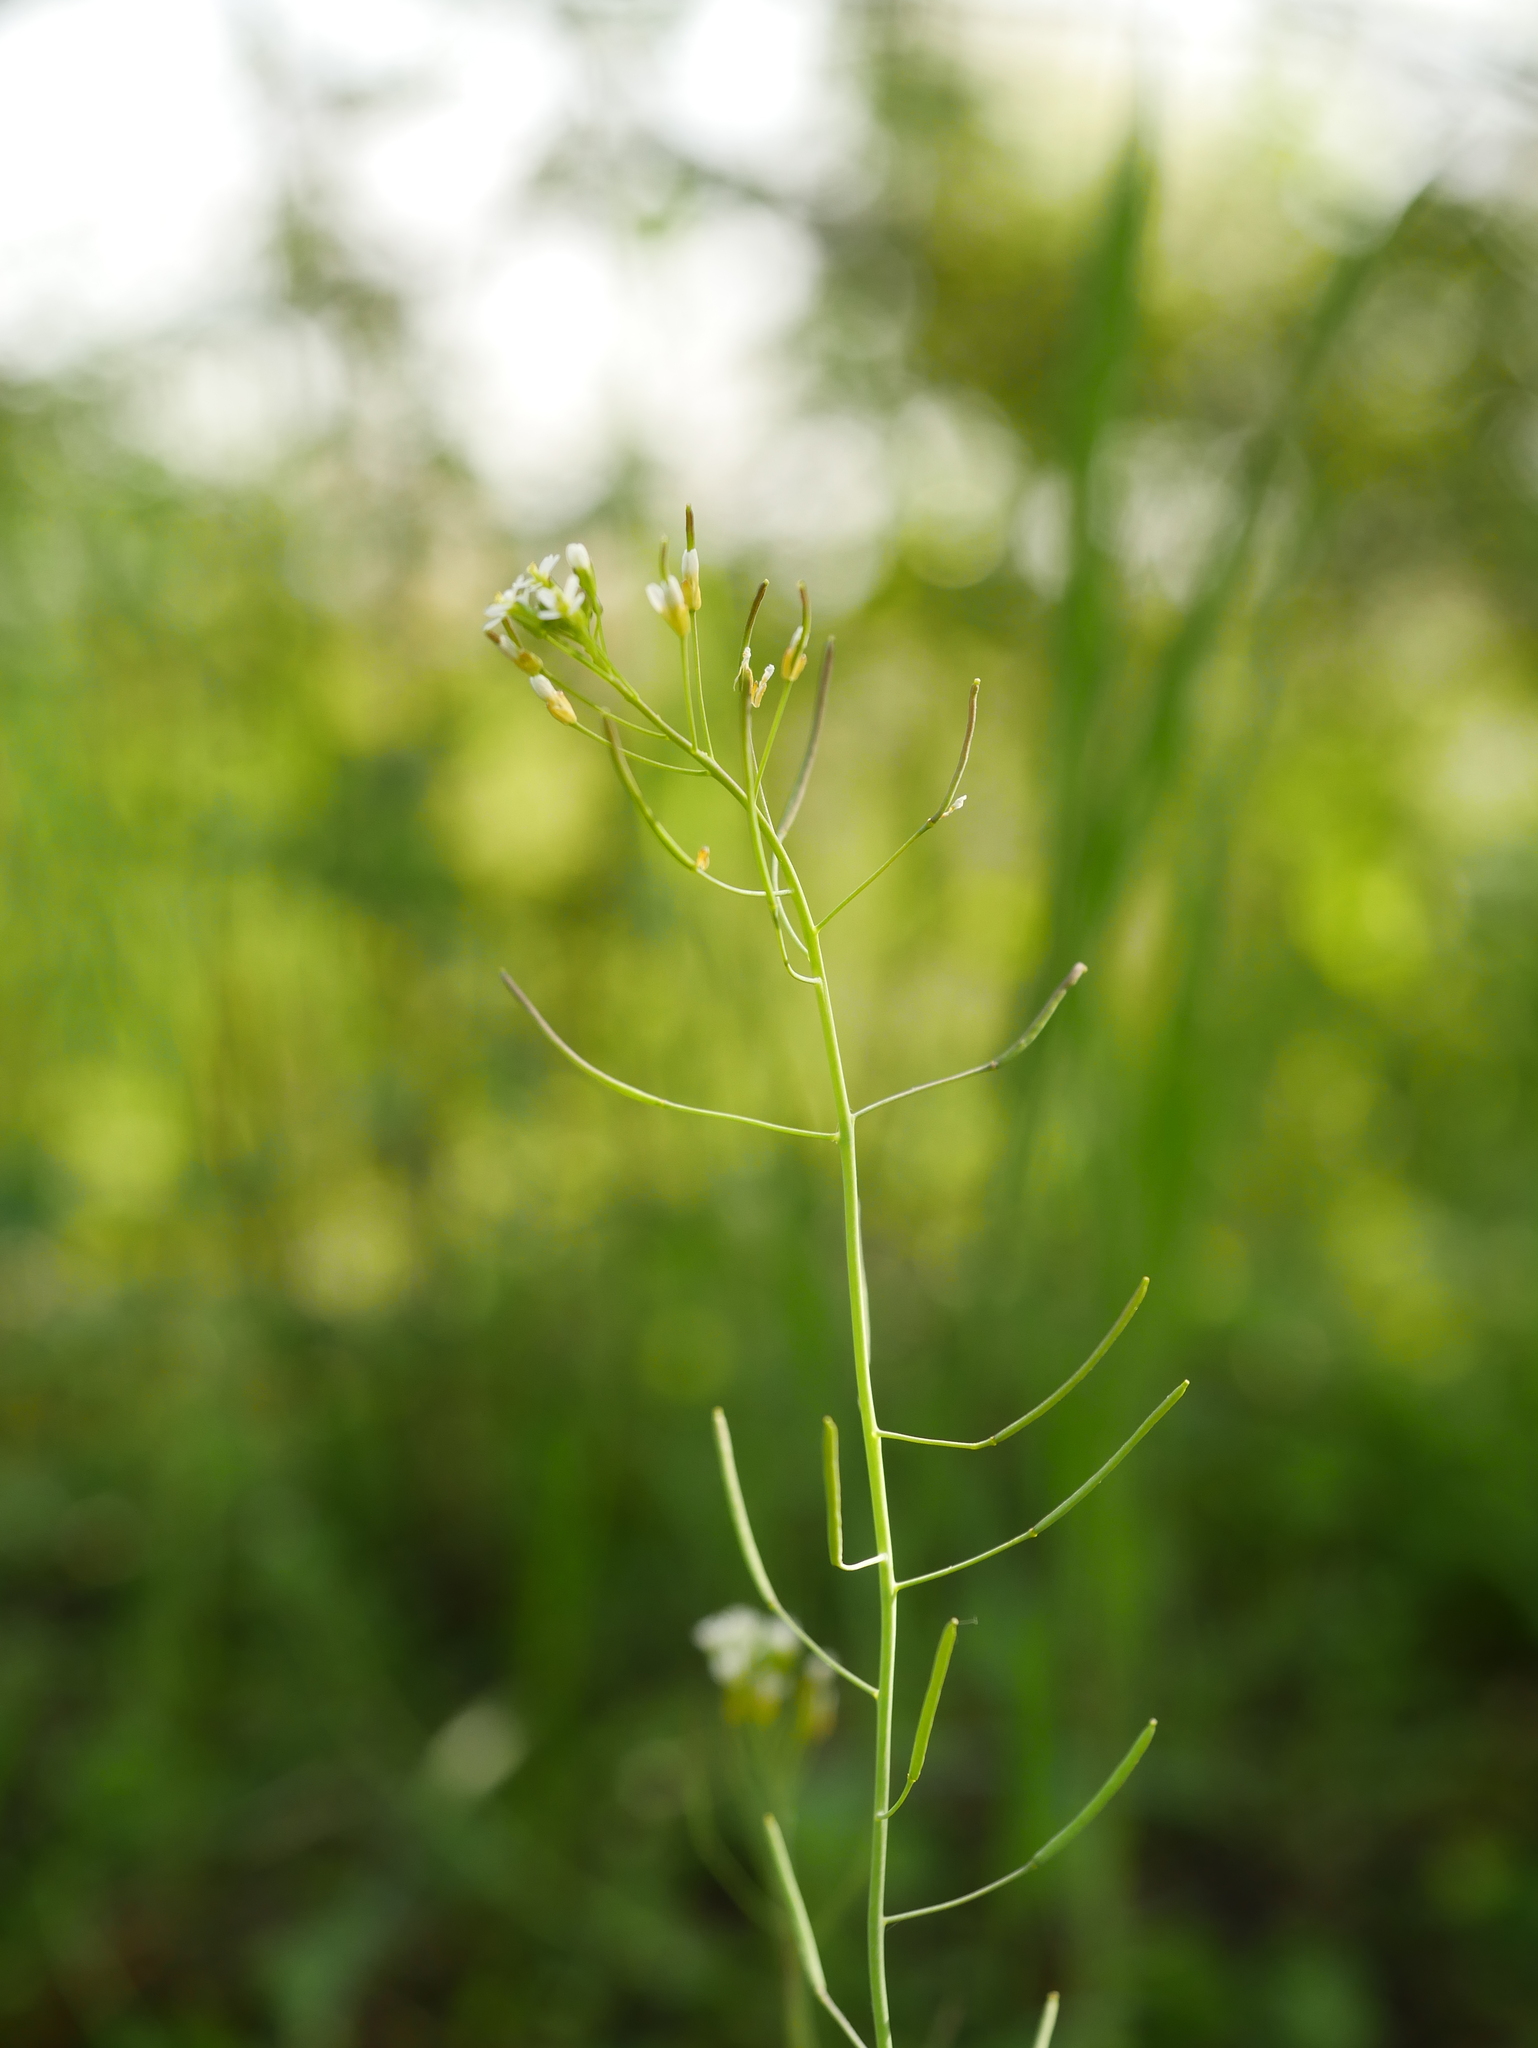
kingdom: Plantae
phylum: Tracheophyta
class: Magnoliopsida
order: Brassicales
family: Brassicaceae
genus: Arabidopsis
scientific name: Arabidopsis thaliana
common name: Thale cress
